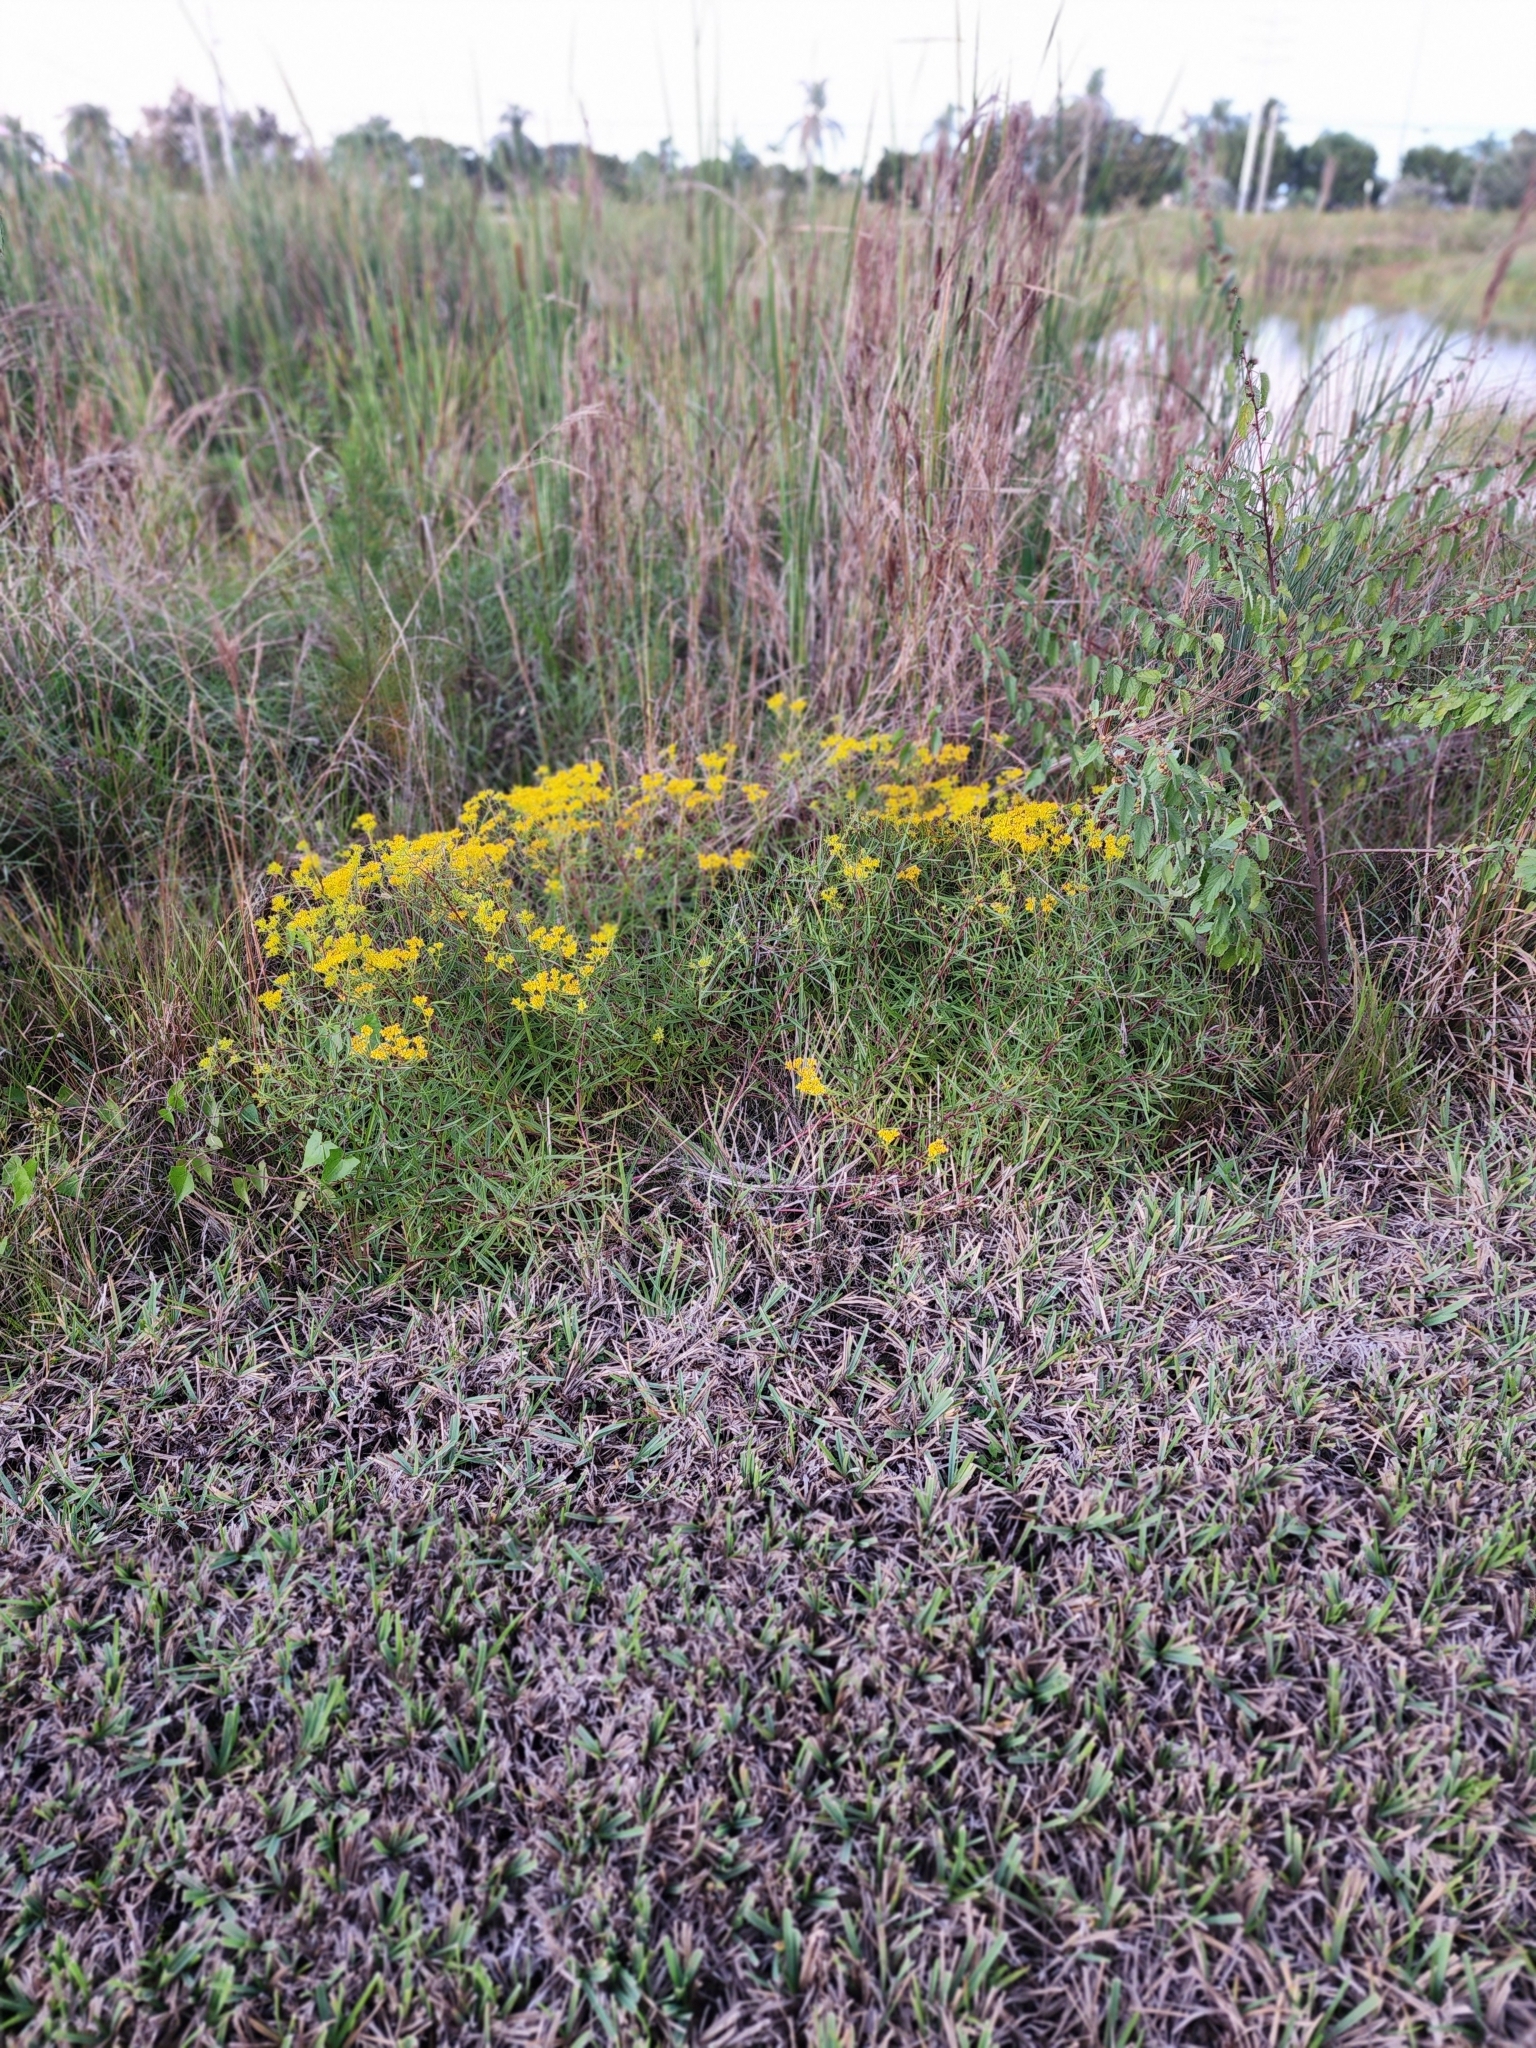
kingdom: Plantae
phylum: Tracheophyta
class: Magnoliopsida
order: Asterales
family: Asteraceae
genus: Flaveria
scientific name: Flaveria linearis
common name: Yellowtop
